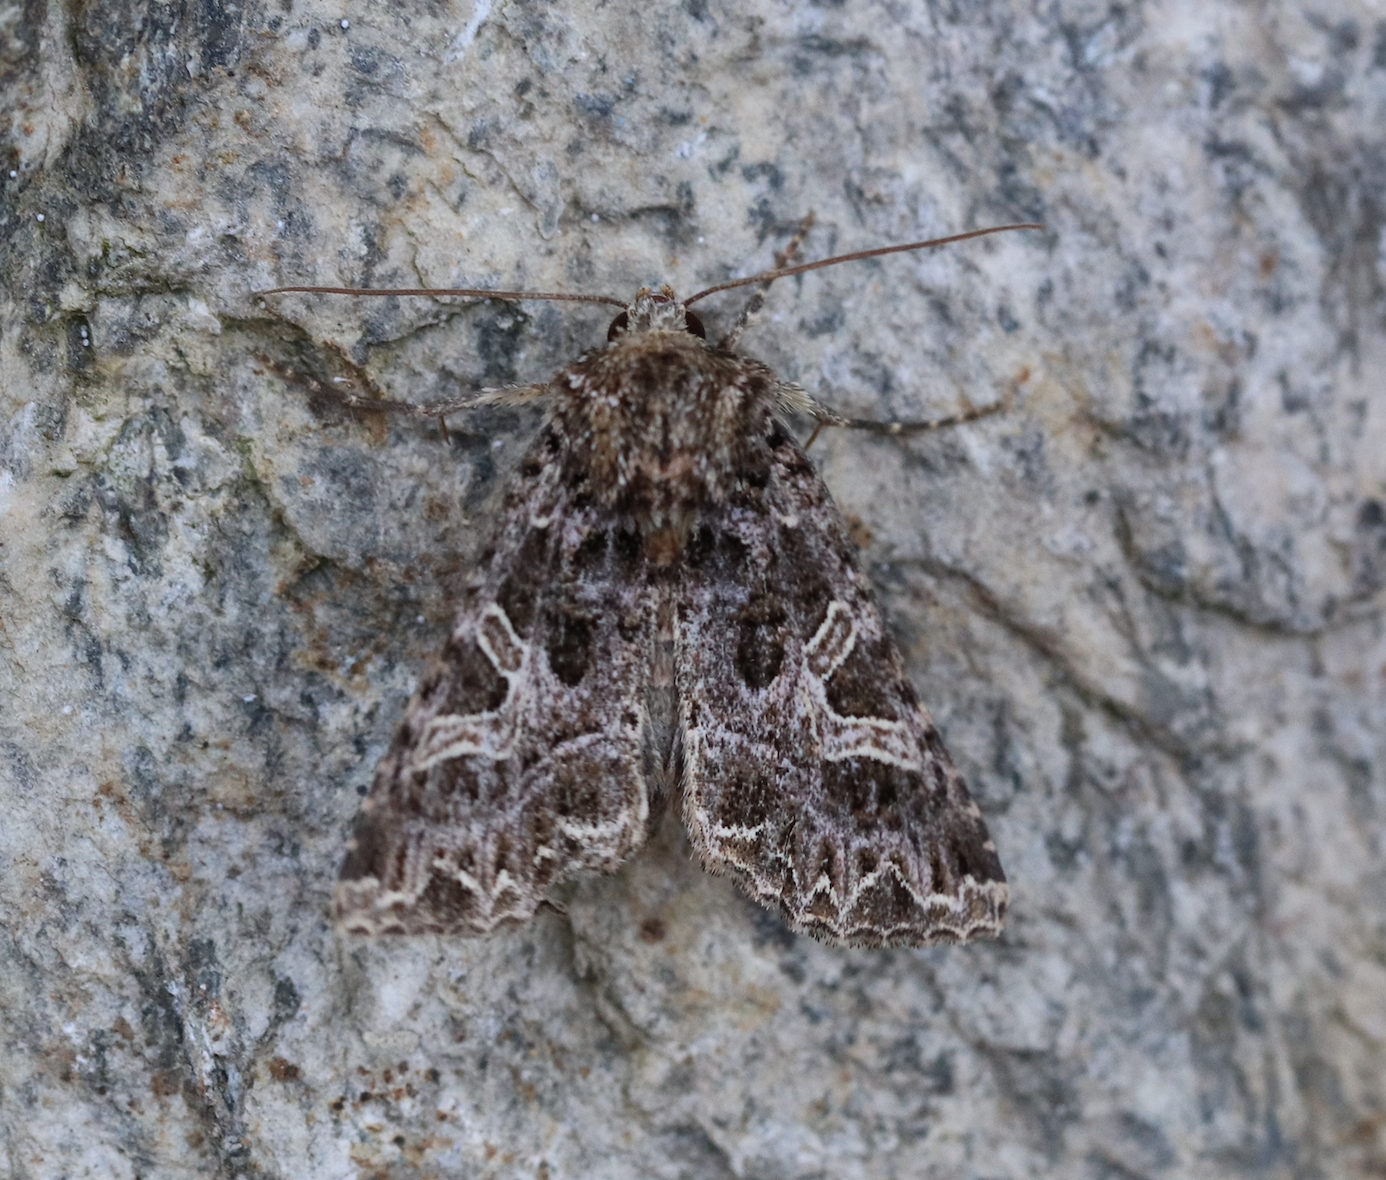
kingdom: Animalia
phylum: Arthropoda
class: Insecta
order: Lepidoptera
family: Noctuidae
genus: Sideridis
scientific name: Sideridis rivularis
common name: Campion
